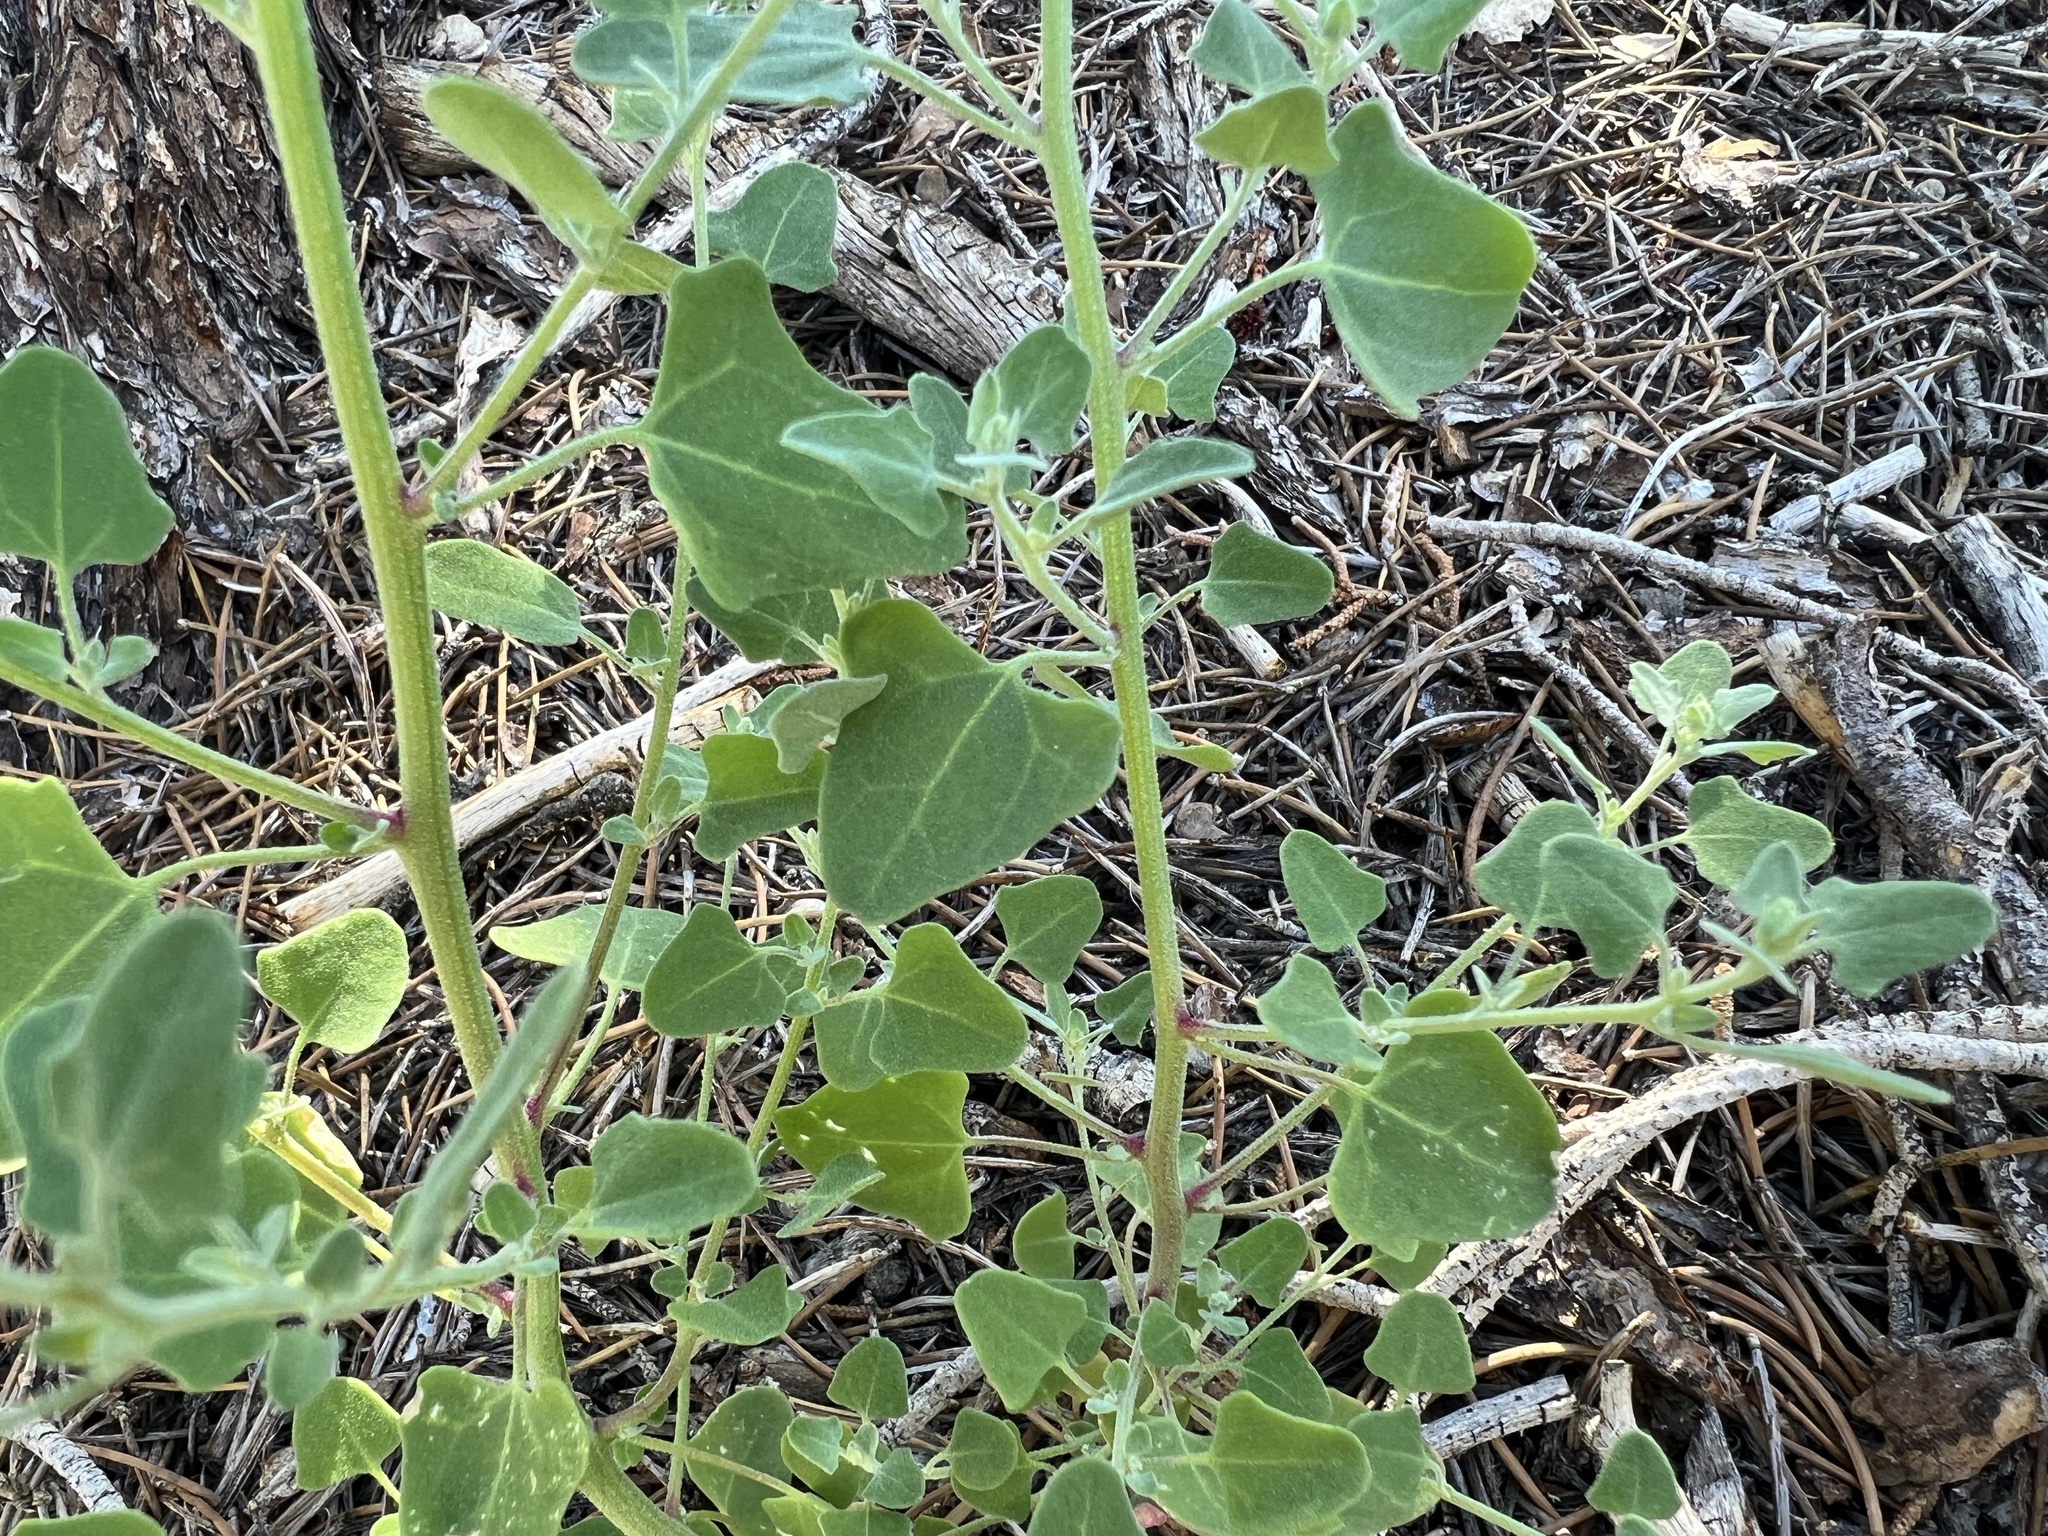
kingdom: Plantae
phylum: Tracheophyta
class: Magnoliopsida
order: Caryophyllales
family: Amaranthaceae
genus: Chenopodium
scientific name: Chenopodium fremontii
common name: Fremont's goosefoot
